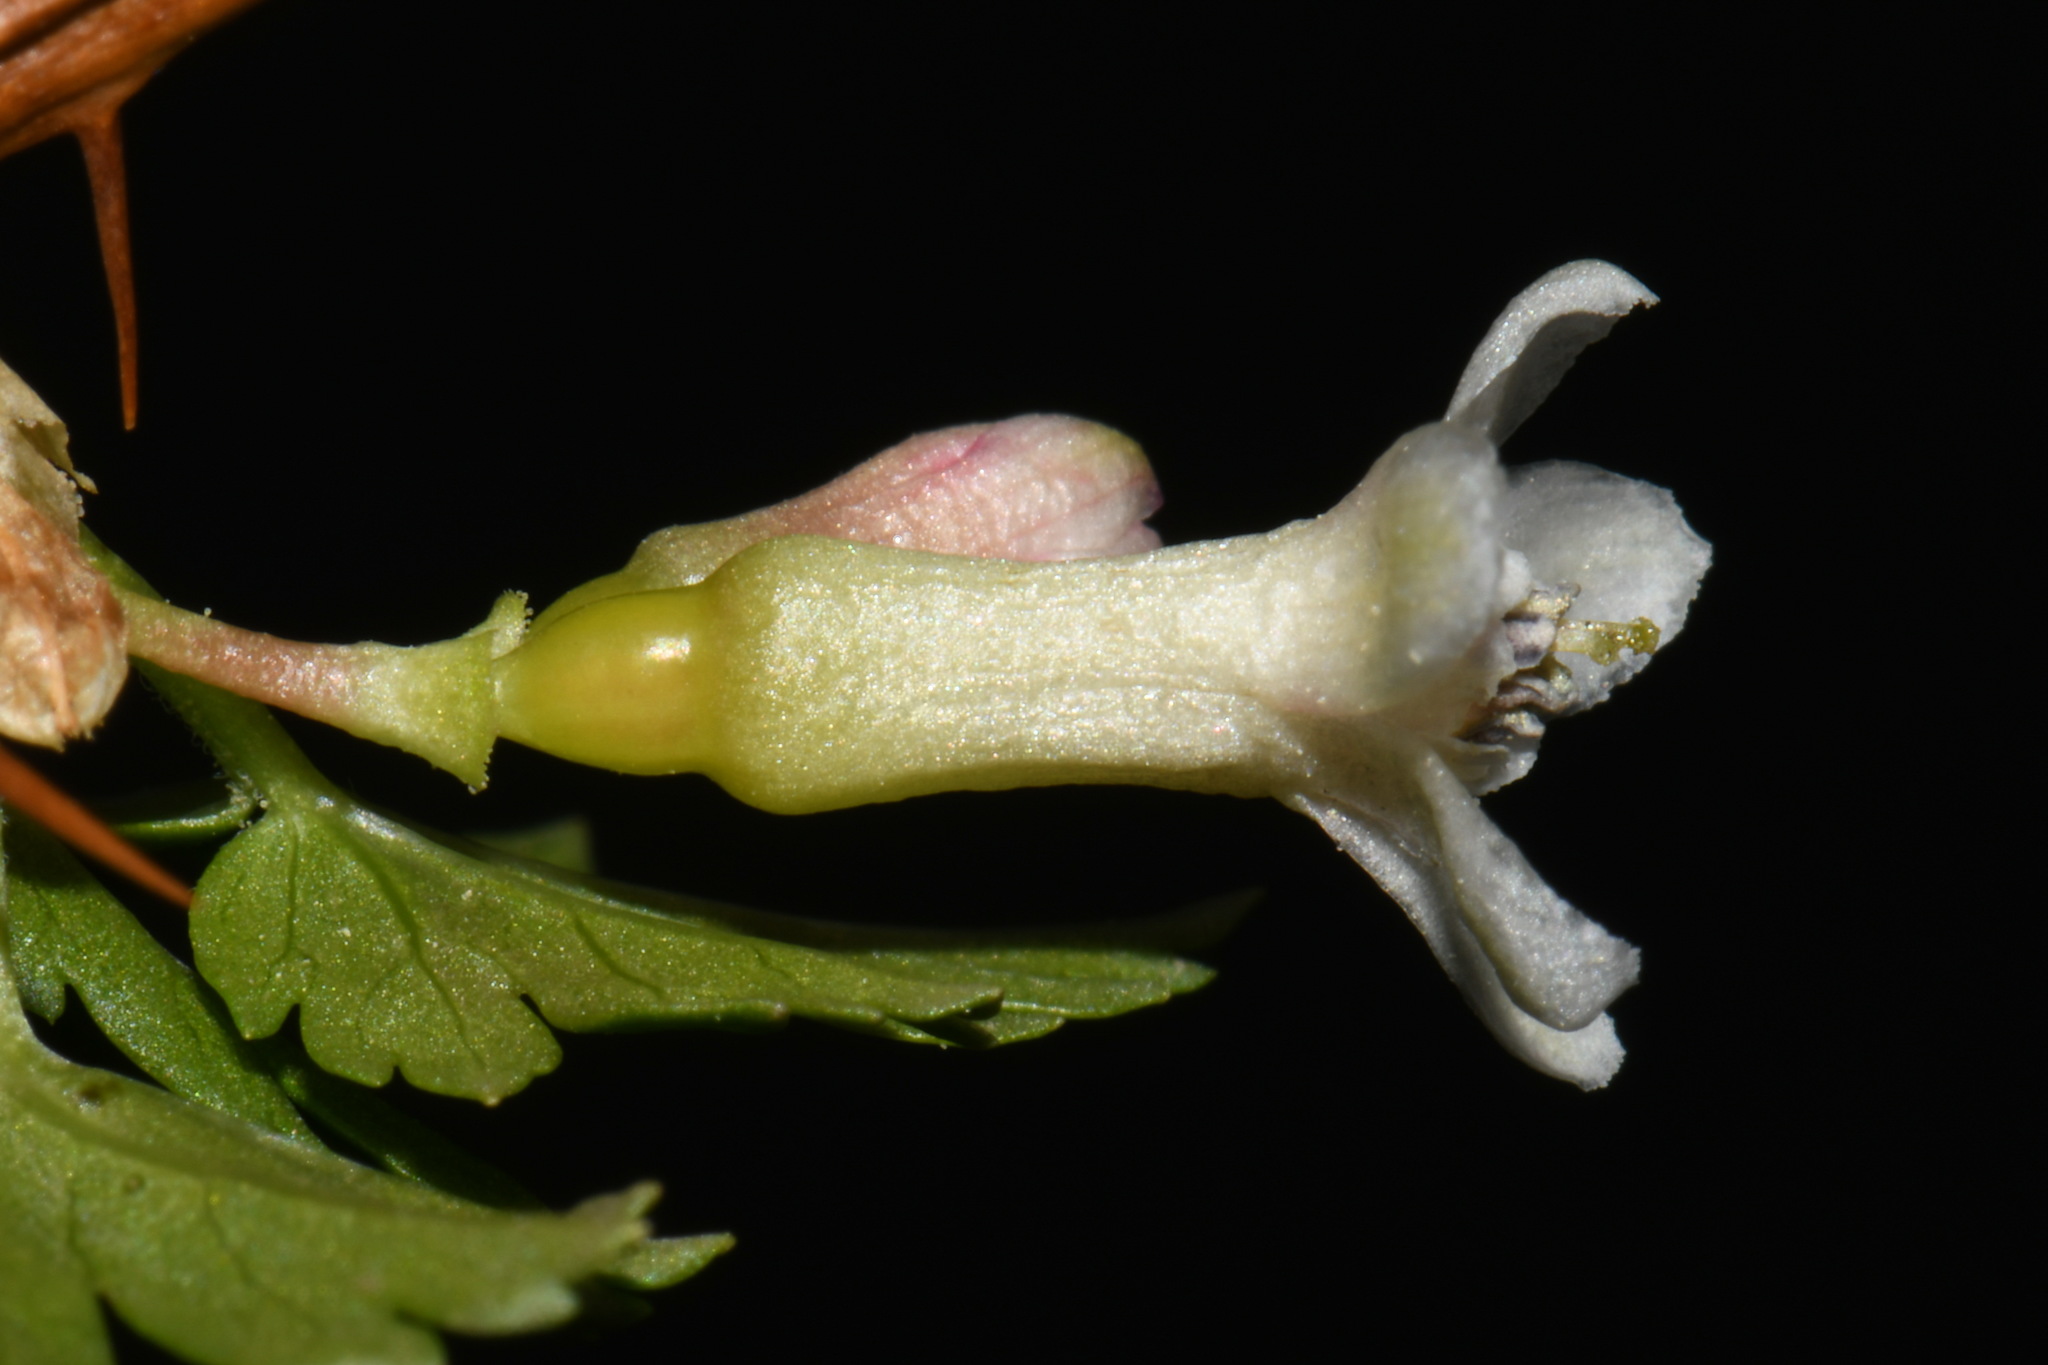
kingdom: Plantae
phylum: Tracheophyta
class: Magnoliopsida
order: Saxifragales
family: Grossulariaceae
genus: Ribes
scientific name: Ribes oxyacanthoides
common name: Northern gooseberry
